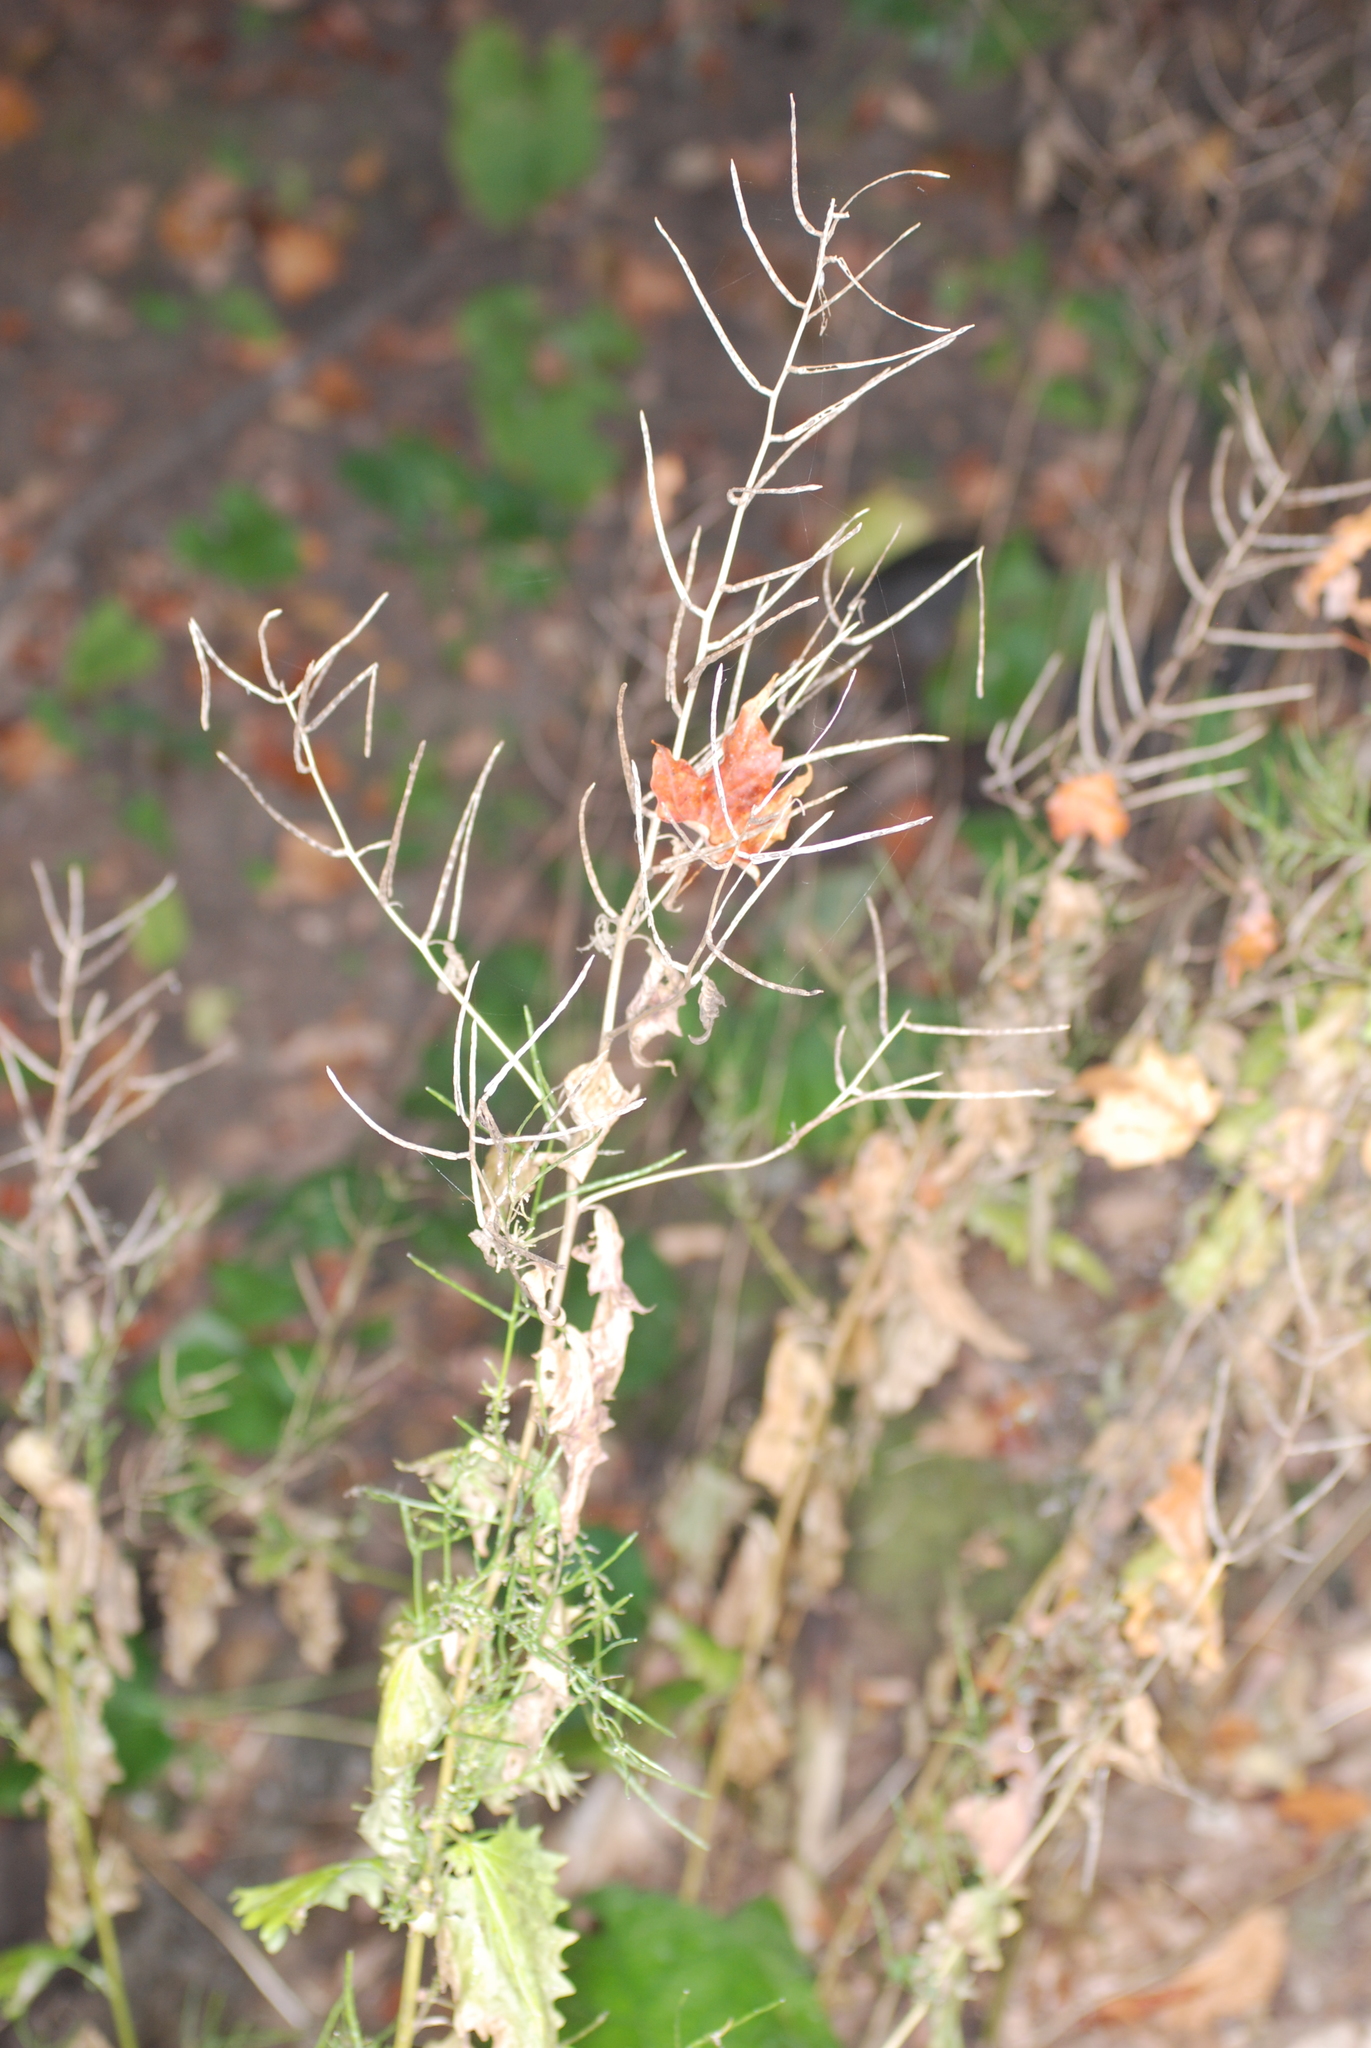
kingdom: Plantae
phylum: Tracheophyta
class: Magnoliopsida
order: Brassicales
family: Brassicaceae
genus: Alliaria
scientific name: Alliaria petiolata
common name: Garlic mustard
